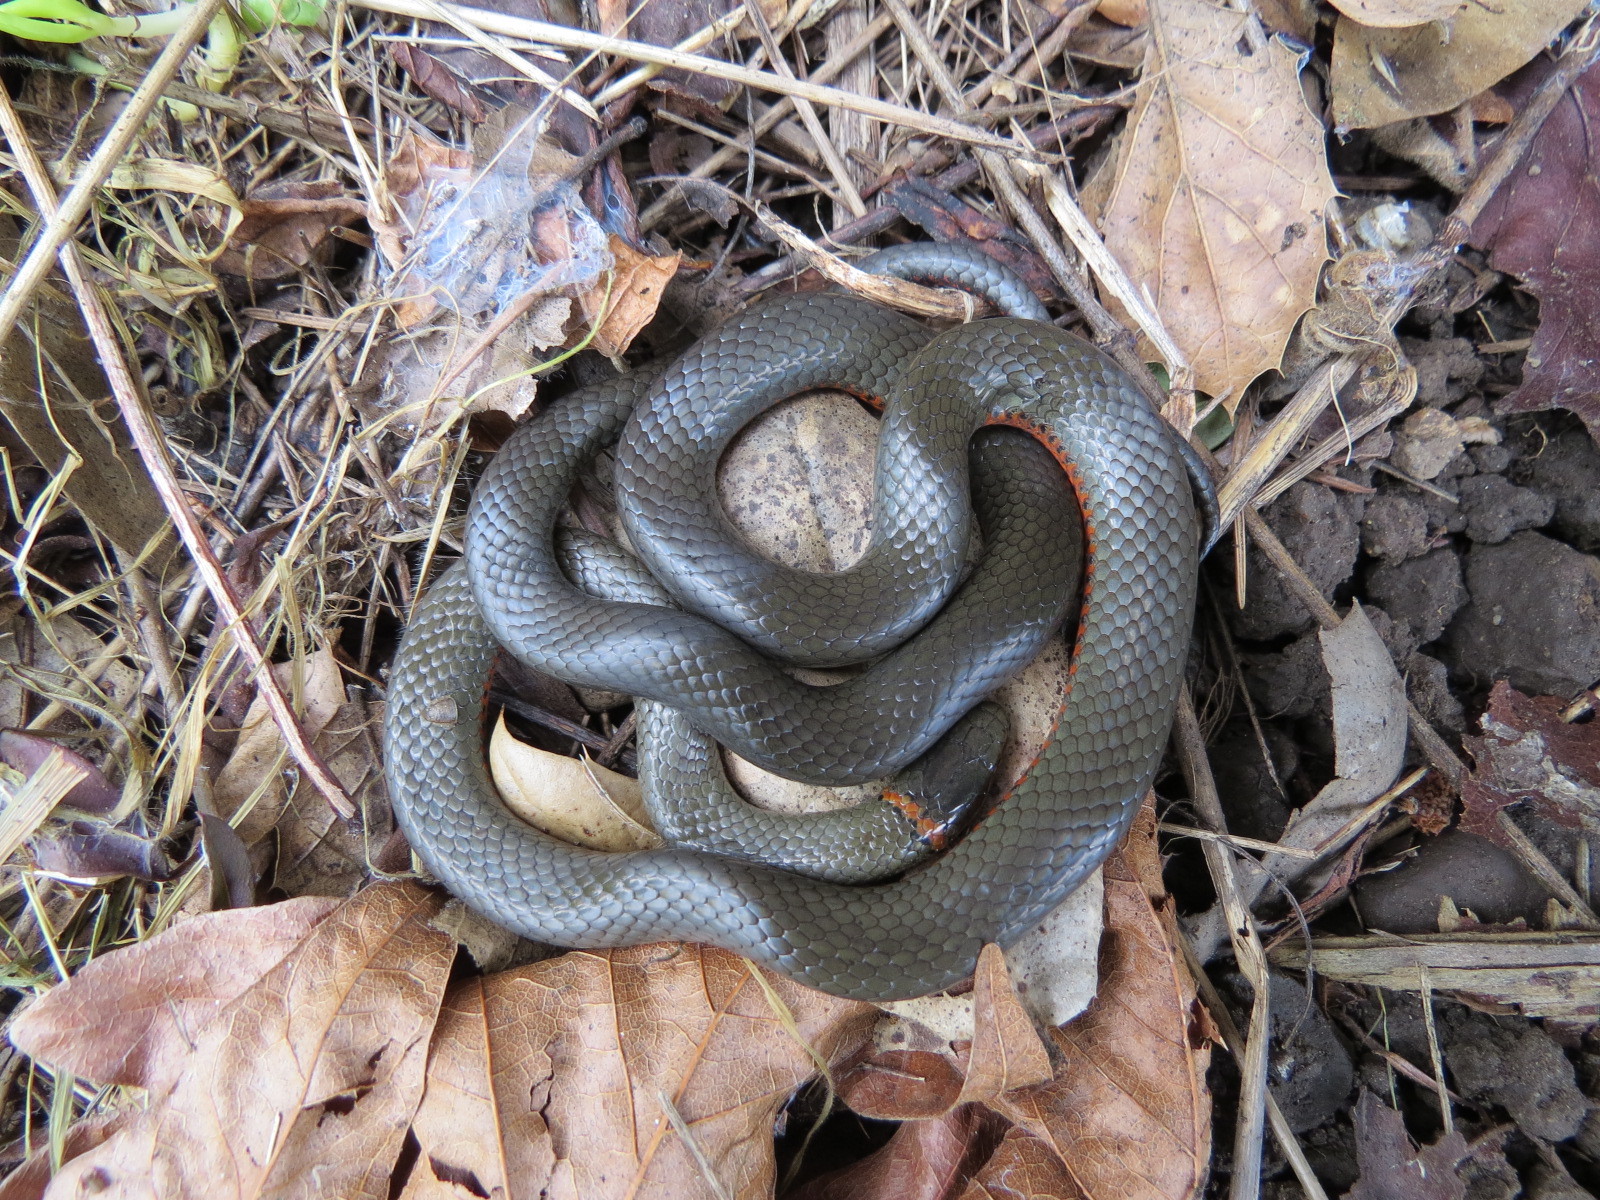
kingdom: Animalia
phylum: Chordata
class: Squamata
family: Colubridae
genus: Diadophis
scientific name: Diadophis punctatus
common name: Ringneck snake
